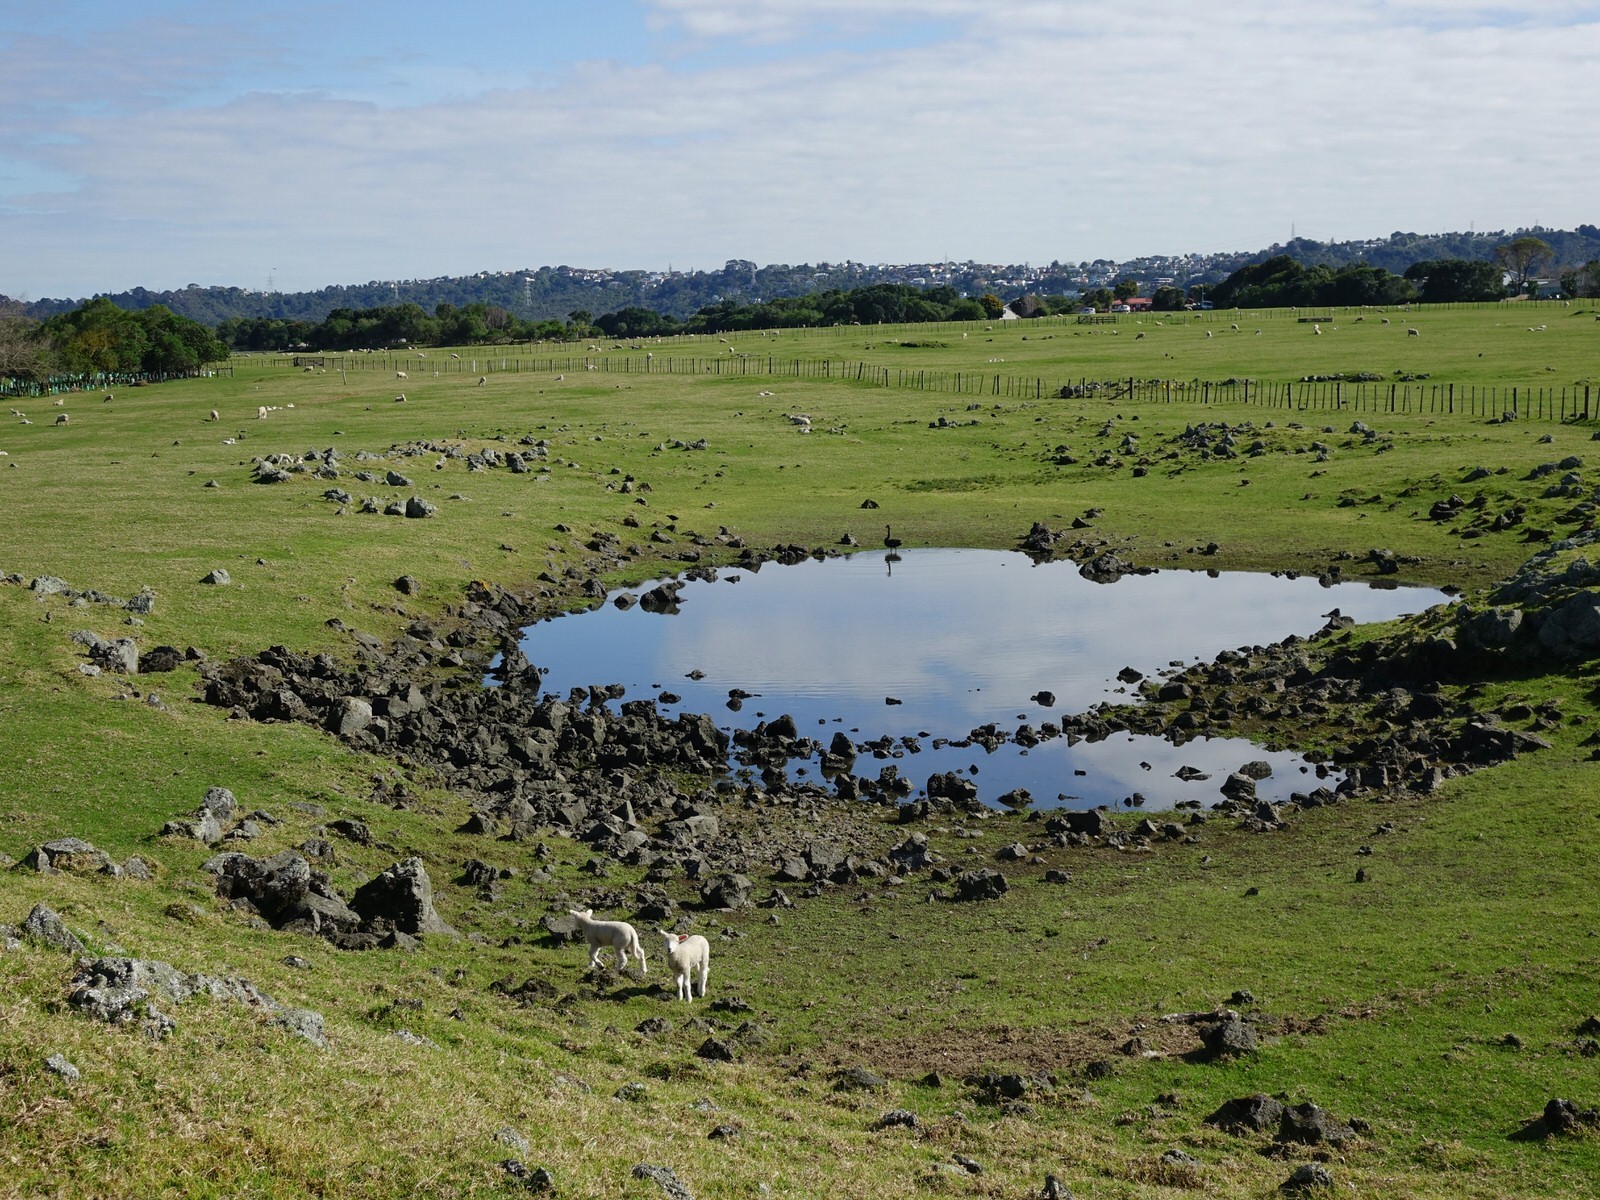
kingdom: Animalia
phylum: Chordata
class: Aves
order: Anseriformes
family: Anatidae
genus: Cygnus
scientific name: Cygnus atratus
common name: Black swan
